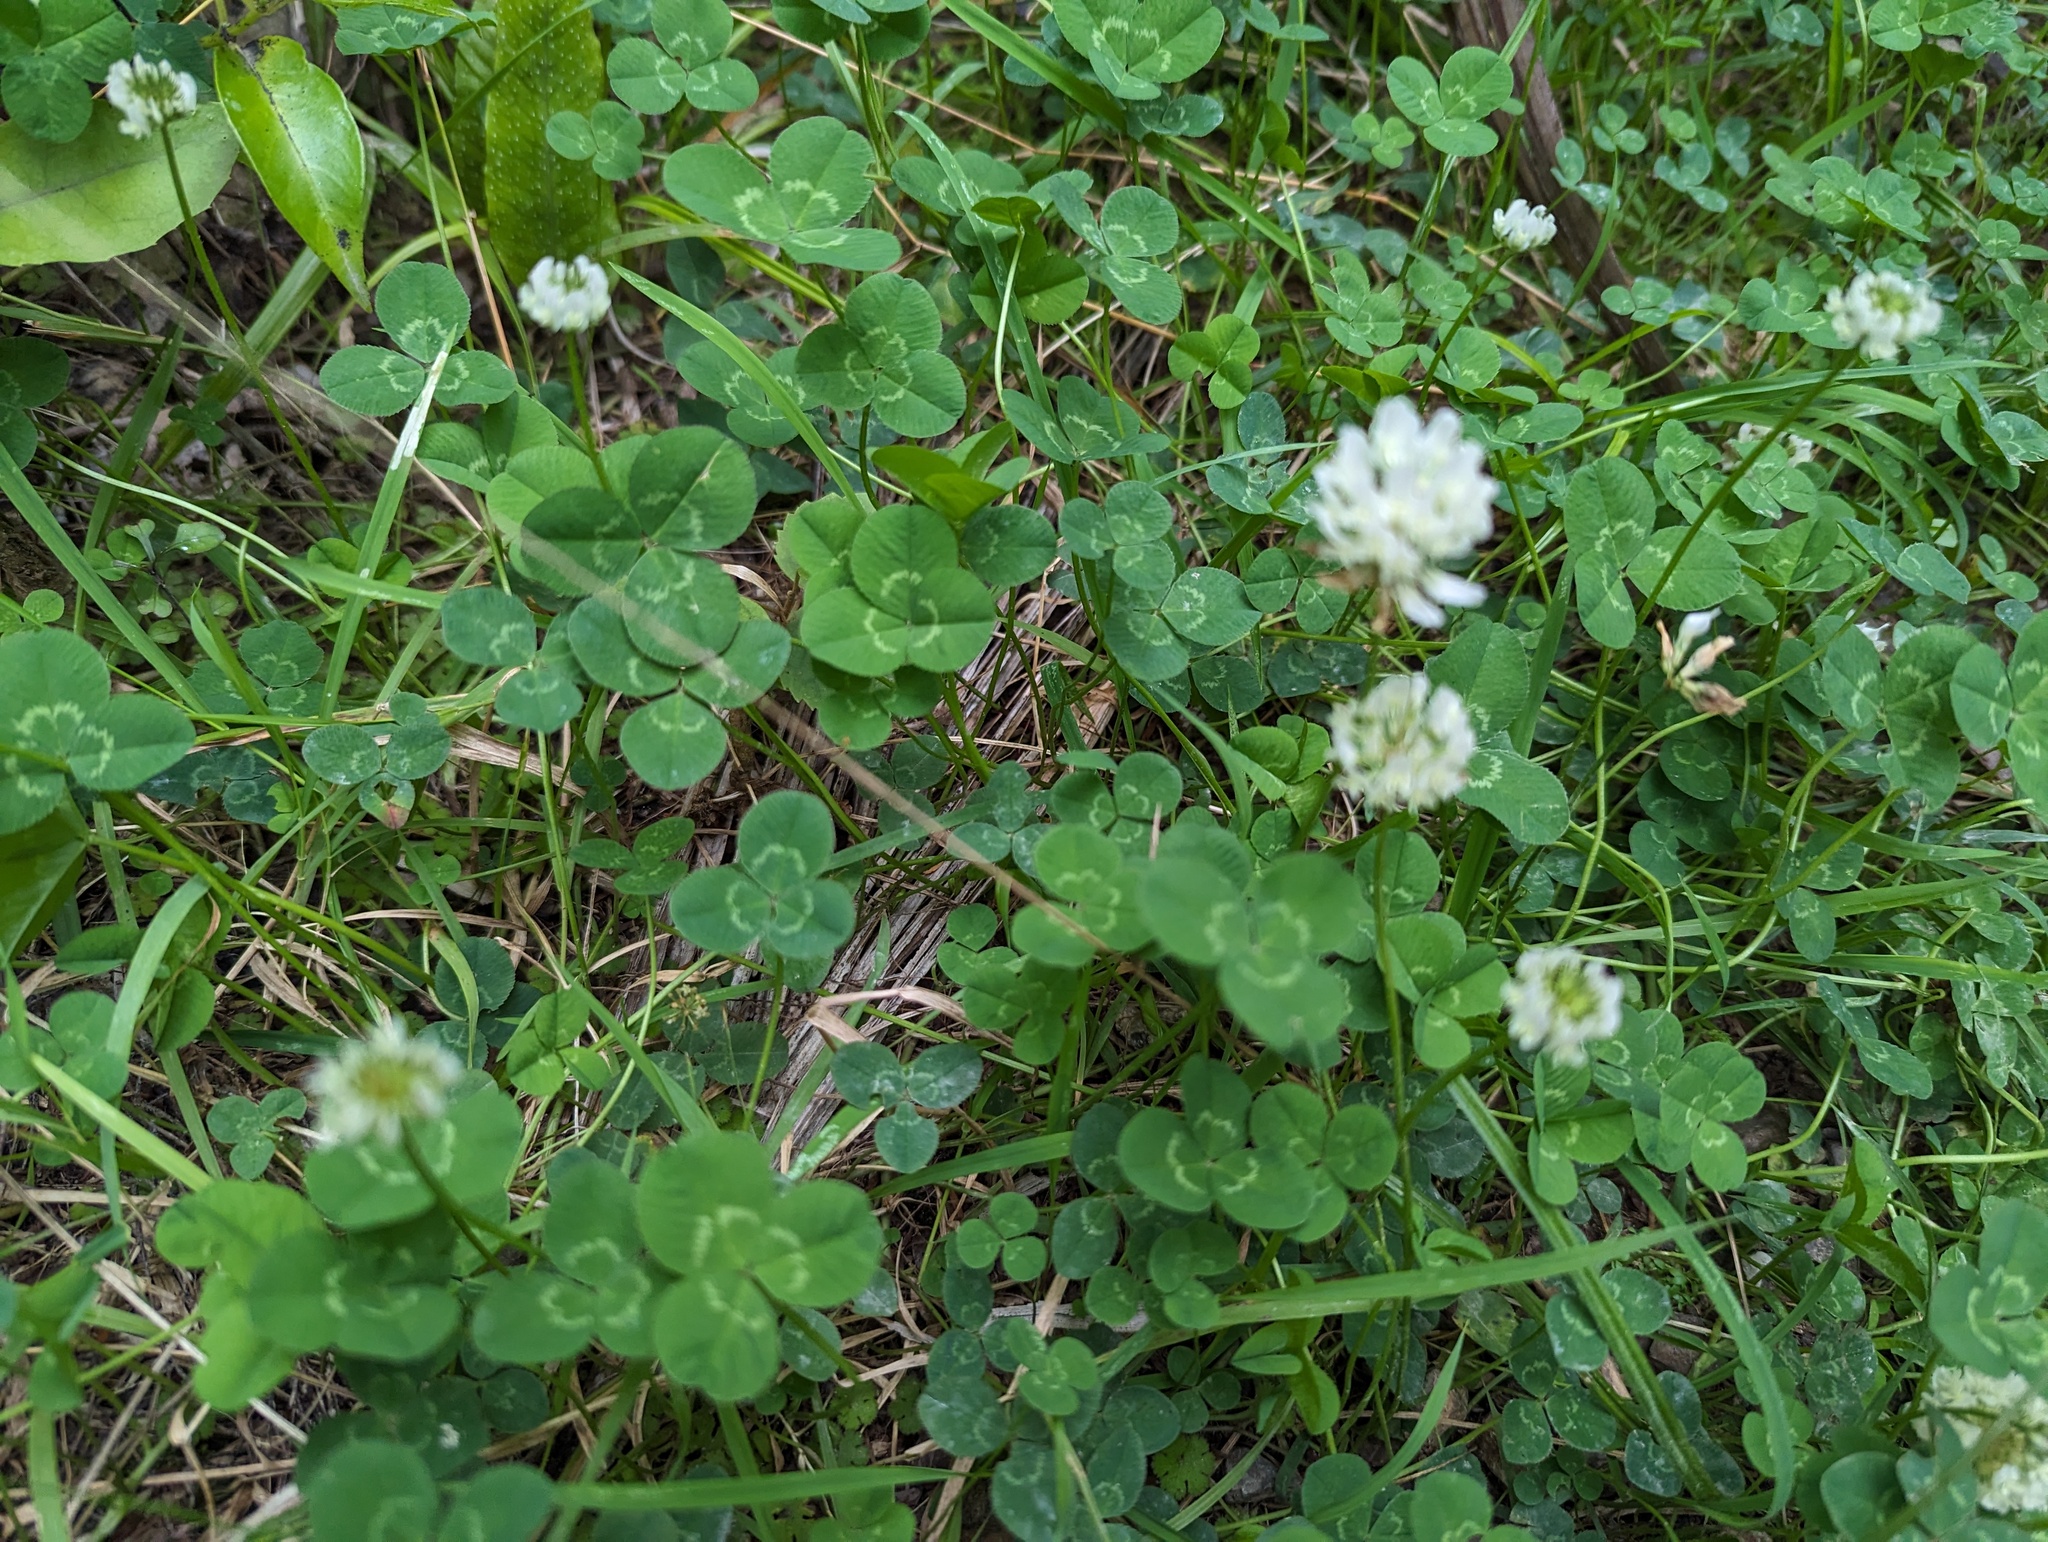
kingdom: Plantae
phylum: Tracheophyta
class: Magnoliopsida
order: Fabales
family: Fabaceae
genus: Trifolium
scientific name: Trifolium repens
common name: White clover
